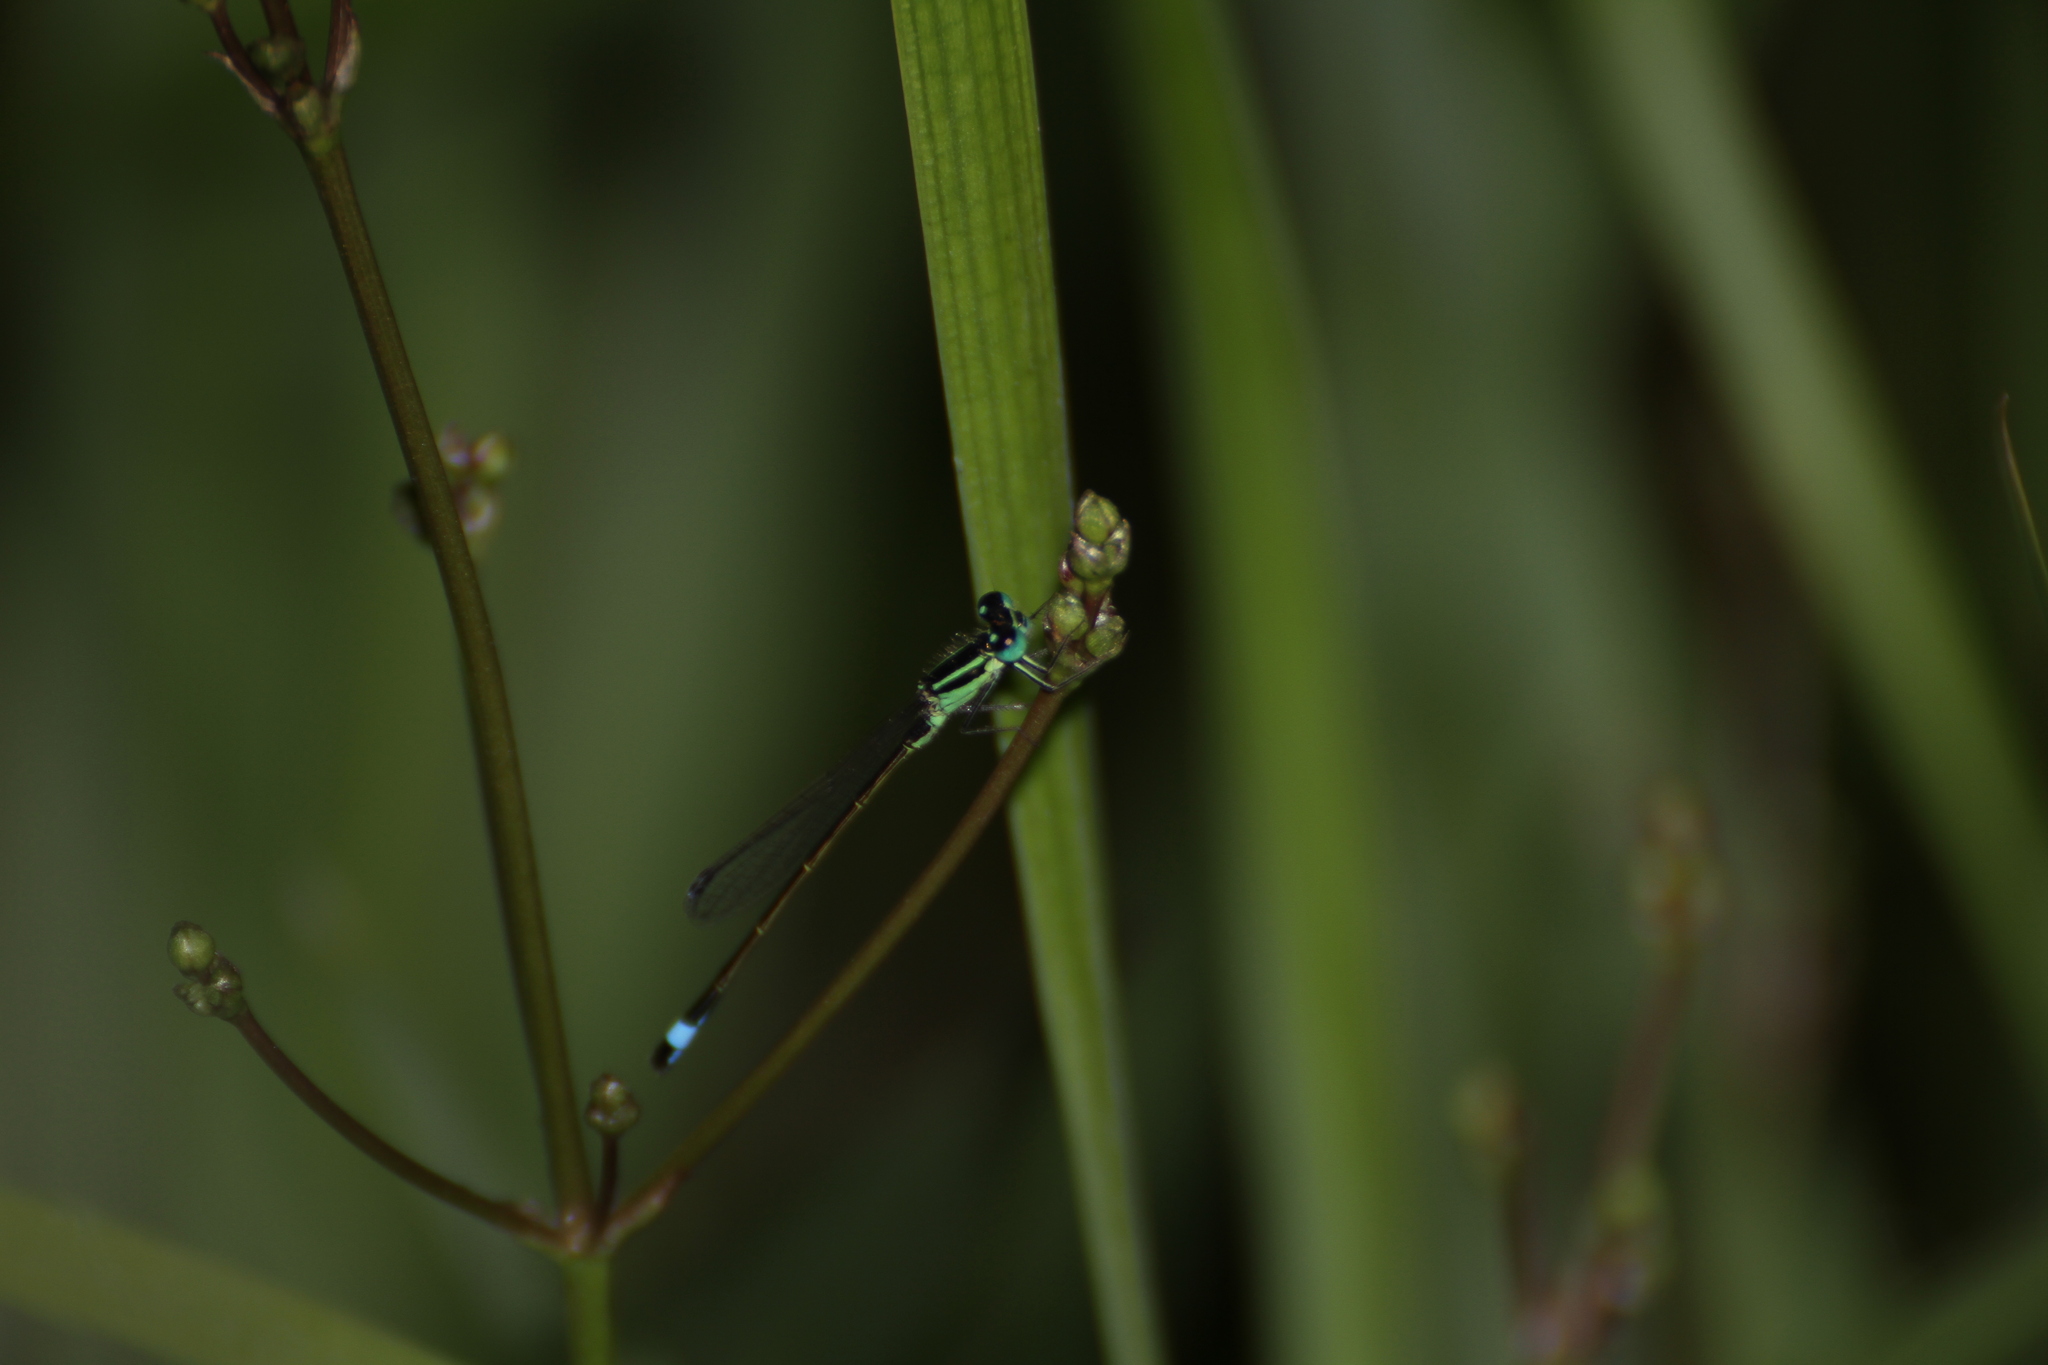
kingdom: Animalia
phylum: Arthropoda
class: Insecta
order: Odonata
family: Coenagrionidae
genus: Ischnura
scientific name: Ischnura elegans
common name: Blue-tailed damselfly
